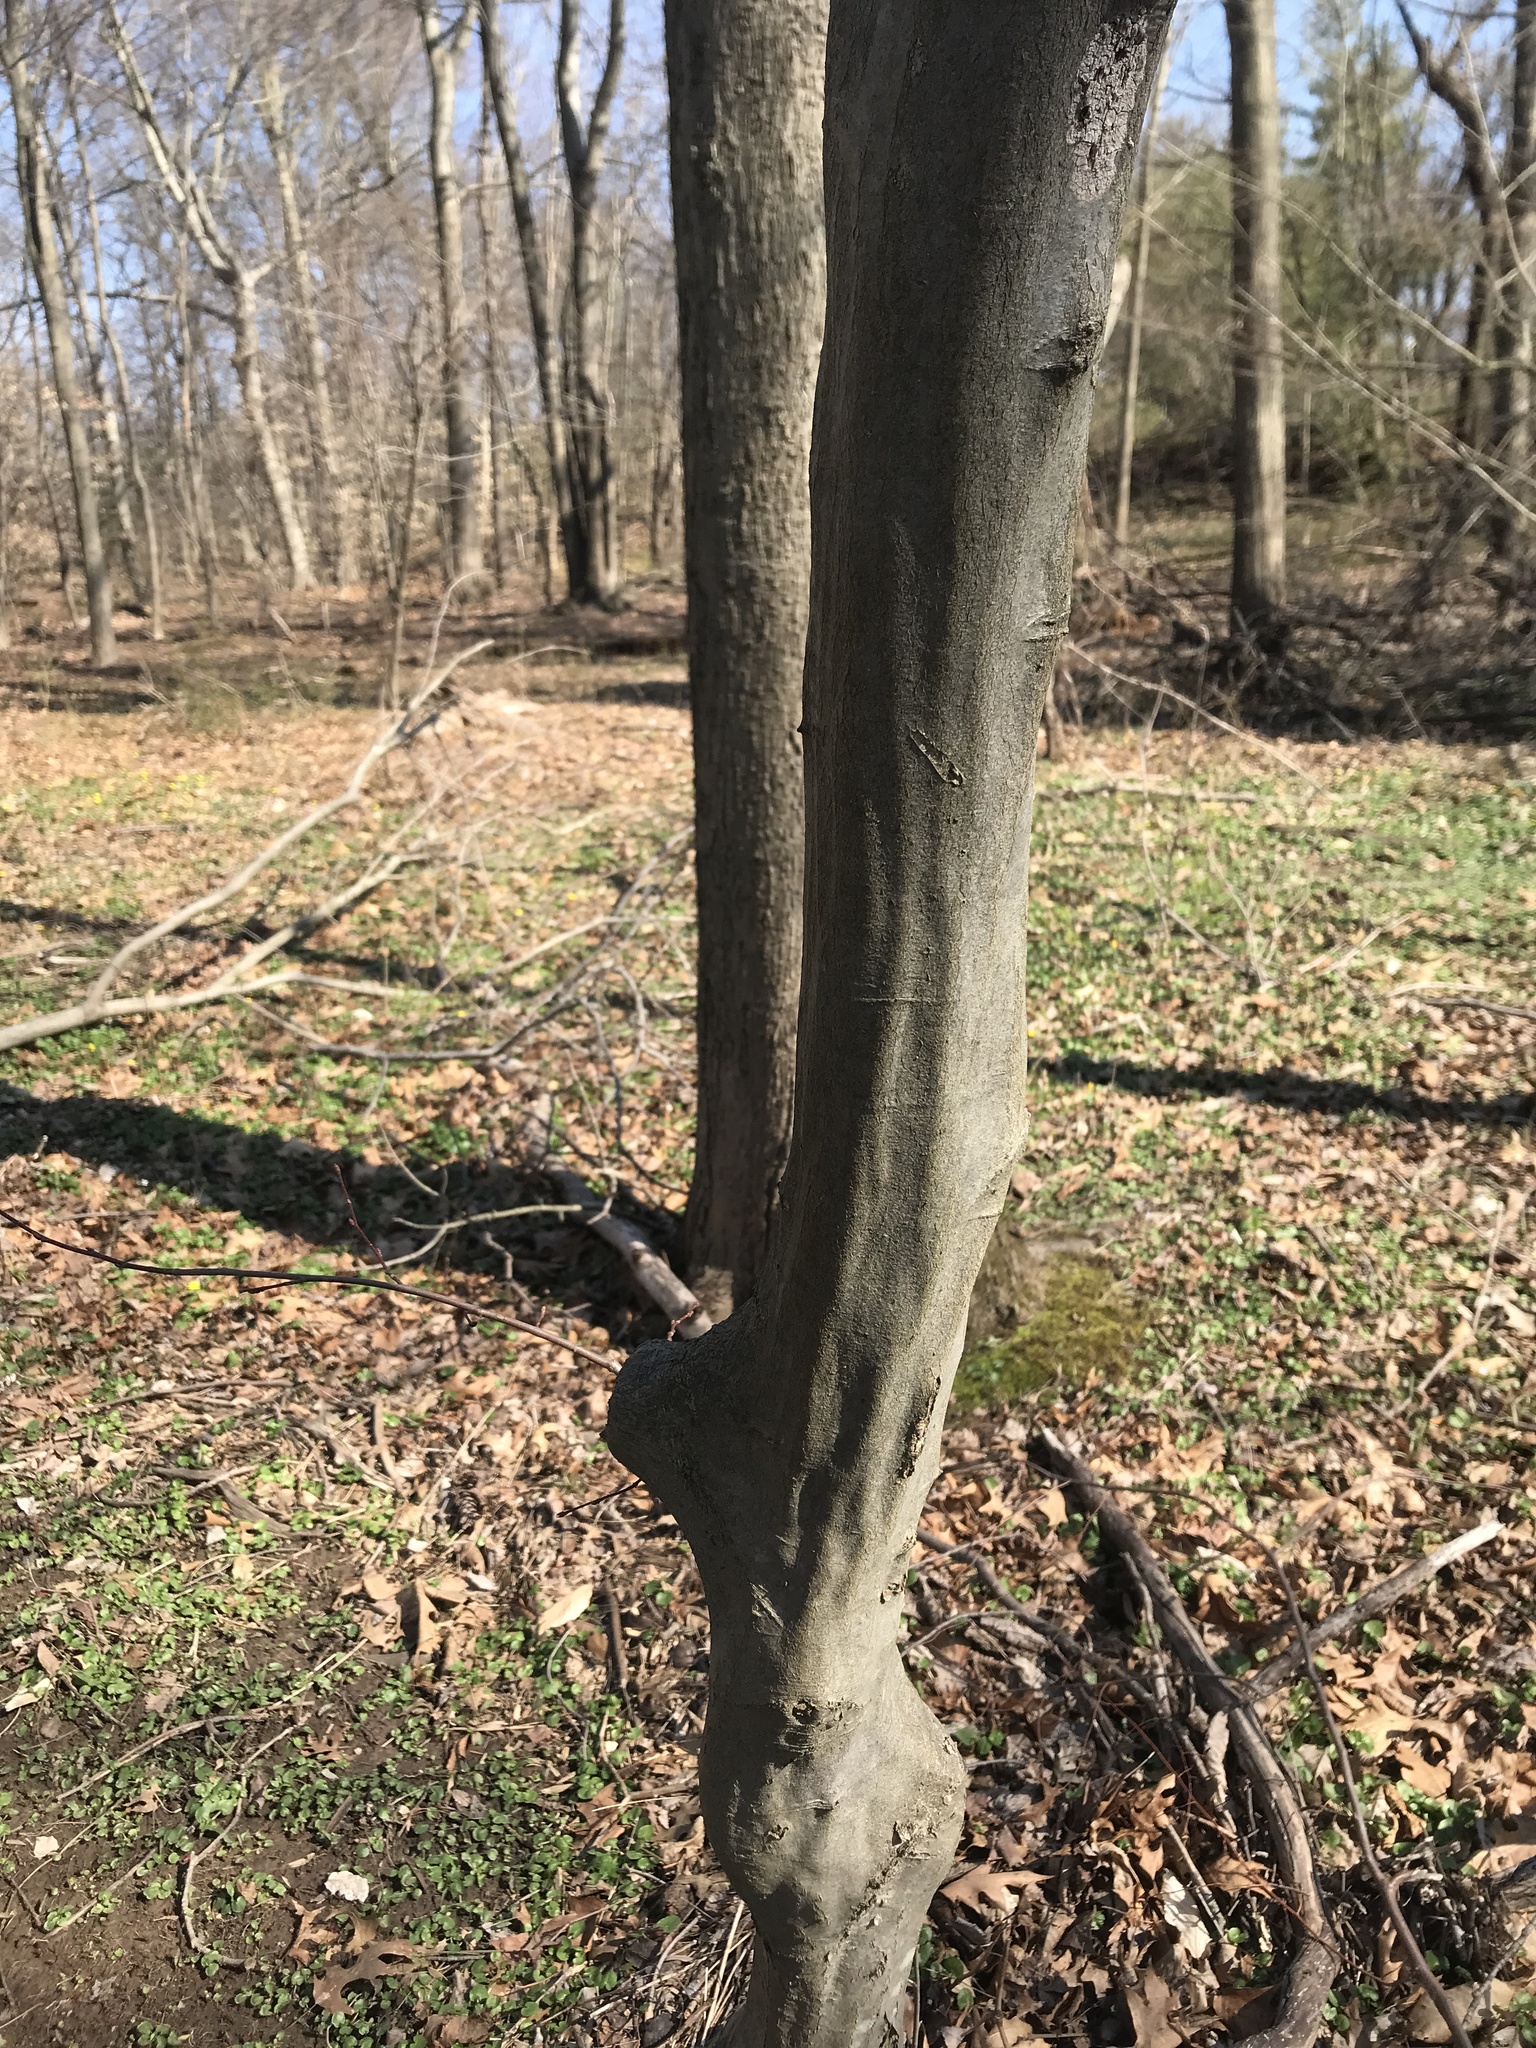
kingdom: Plantae
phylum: Tracheophyta
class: Magnoliopsida
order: Fagales
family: Betulaceae
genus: Carpinus
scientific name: Carpinus caroliniana
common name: American hornbeam
